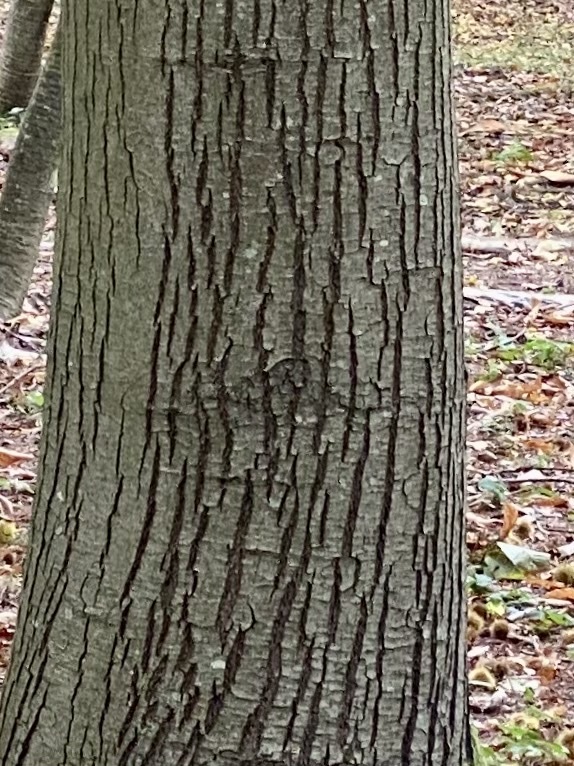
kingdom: Plantae
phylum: Tracheophyta
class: Magnoliopsida
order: Fagales
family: Fagaceae
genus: Castanea
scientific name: Castanea sativa
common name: Sweet chestnut
